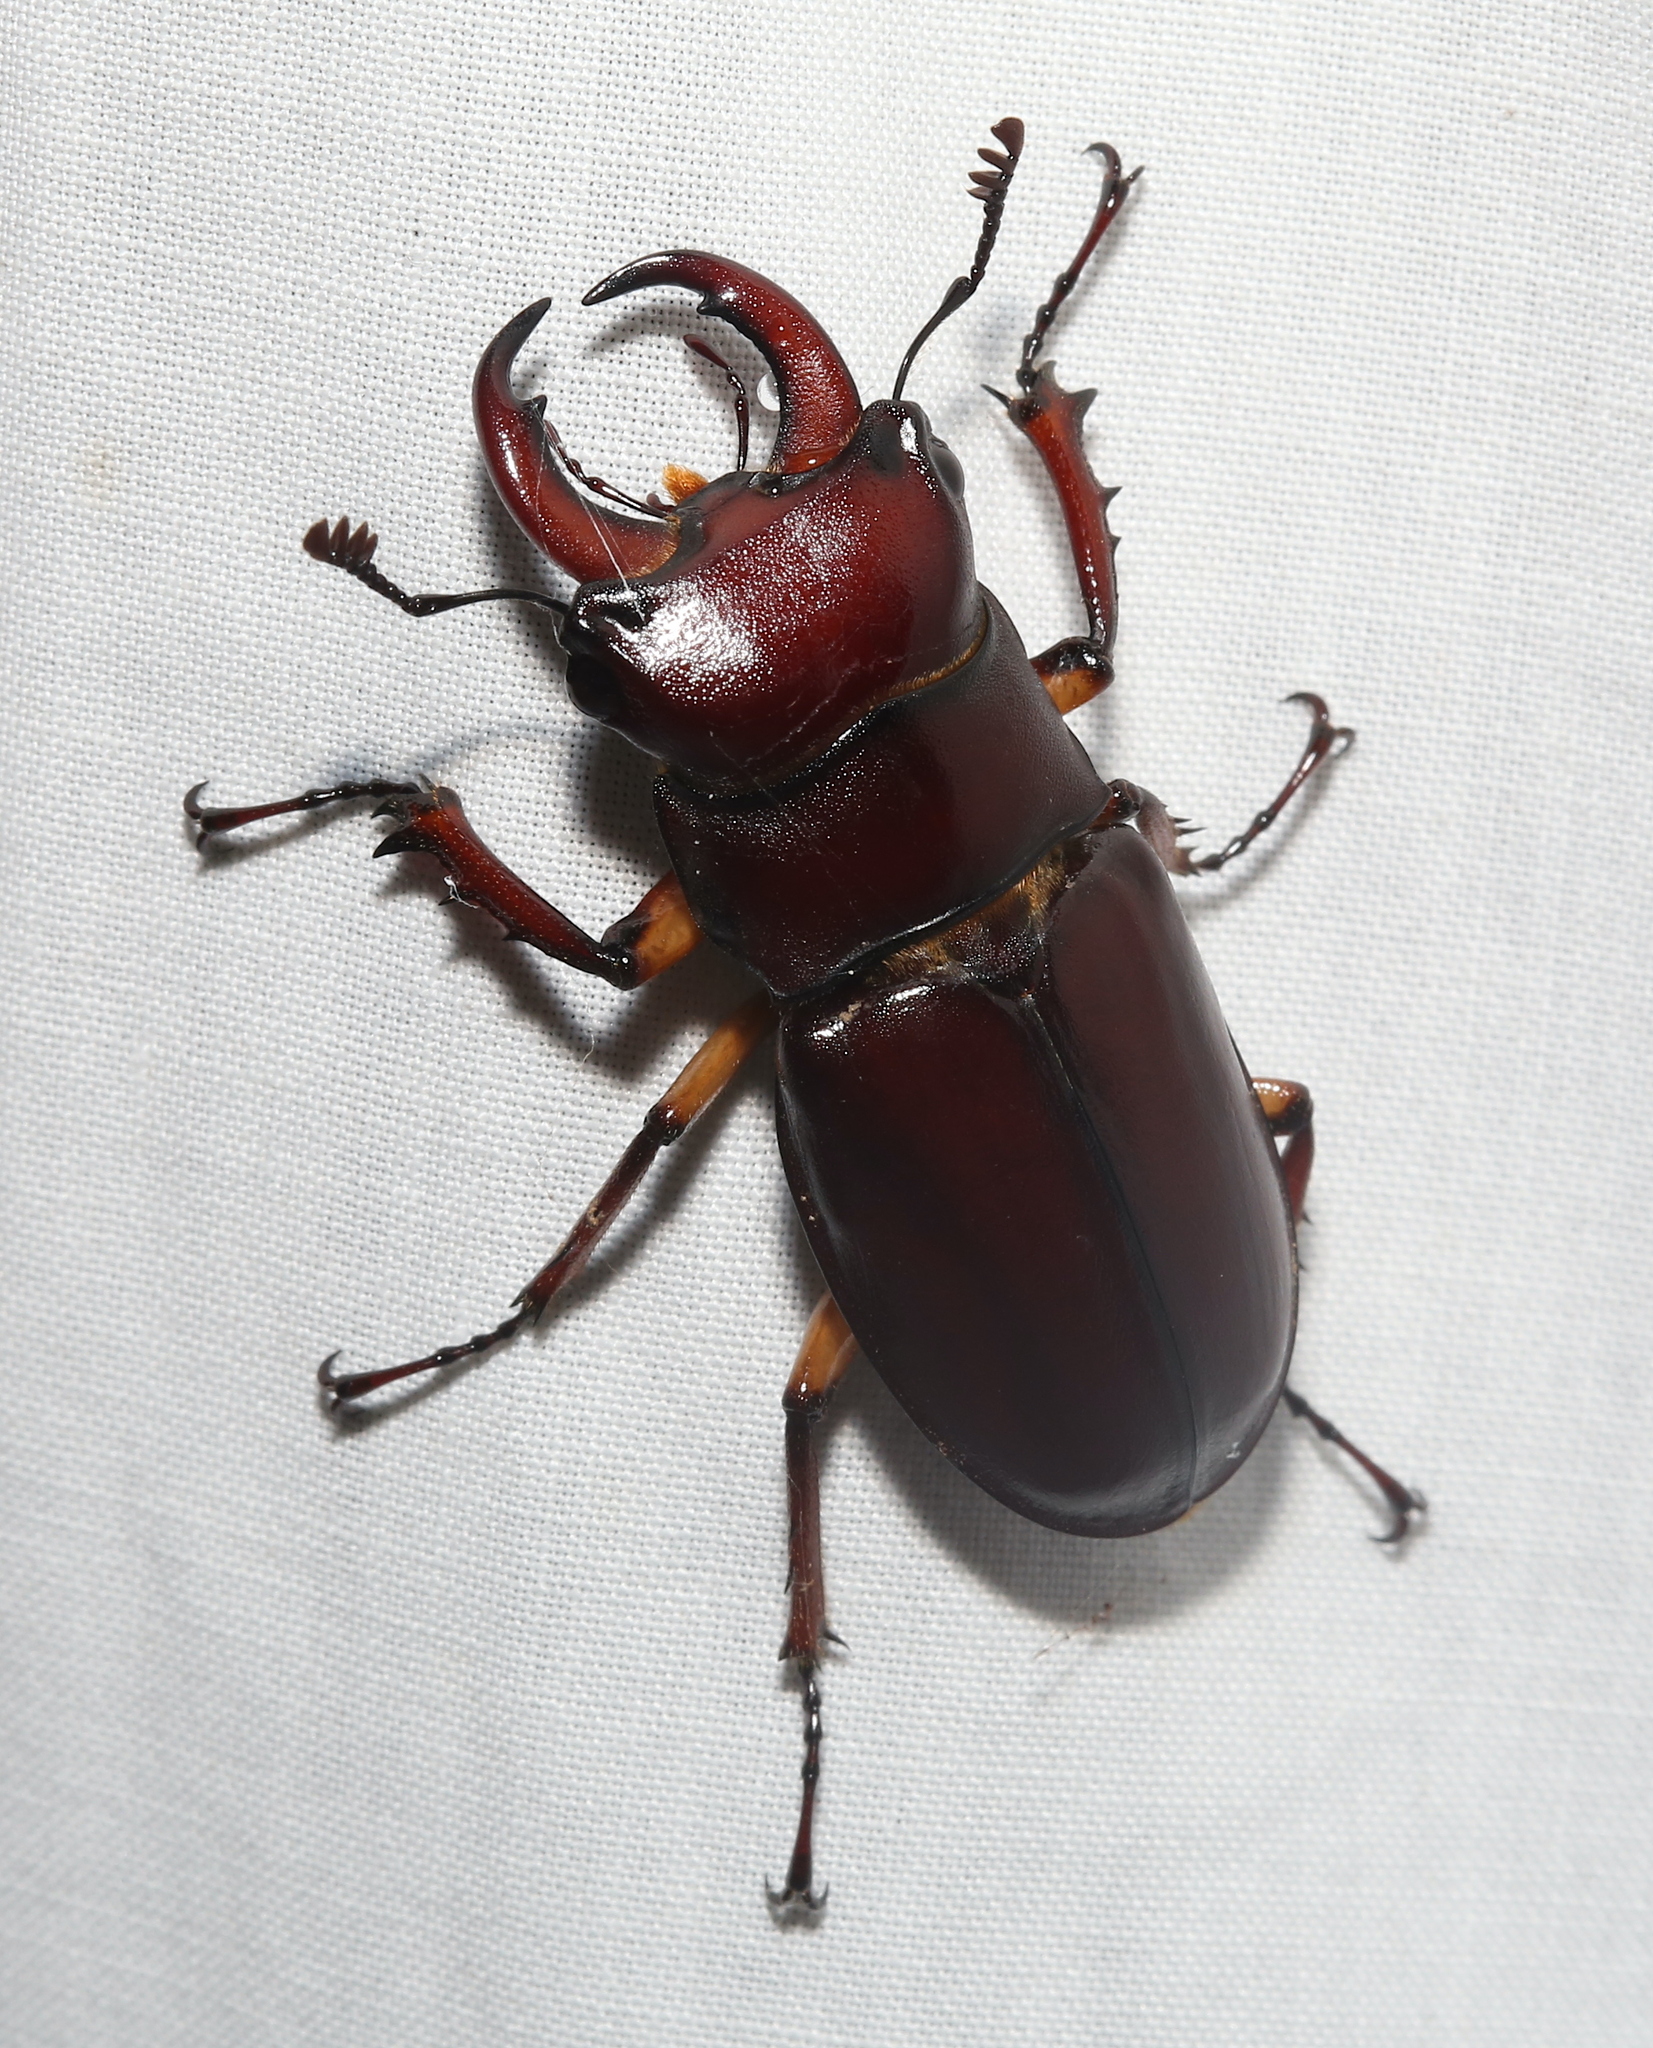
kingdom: Animalia
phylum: Arthropoda
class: Insecta
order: Coleoptera
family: Lucanidae
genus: Lucanus
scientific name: Lucanus capreolus
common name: Stag beetle
